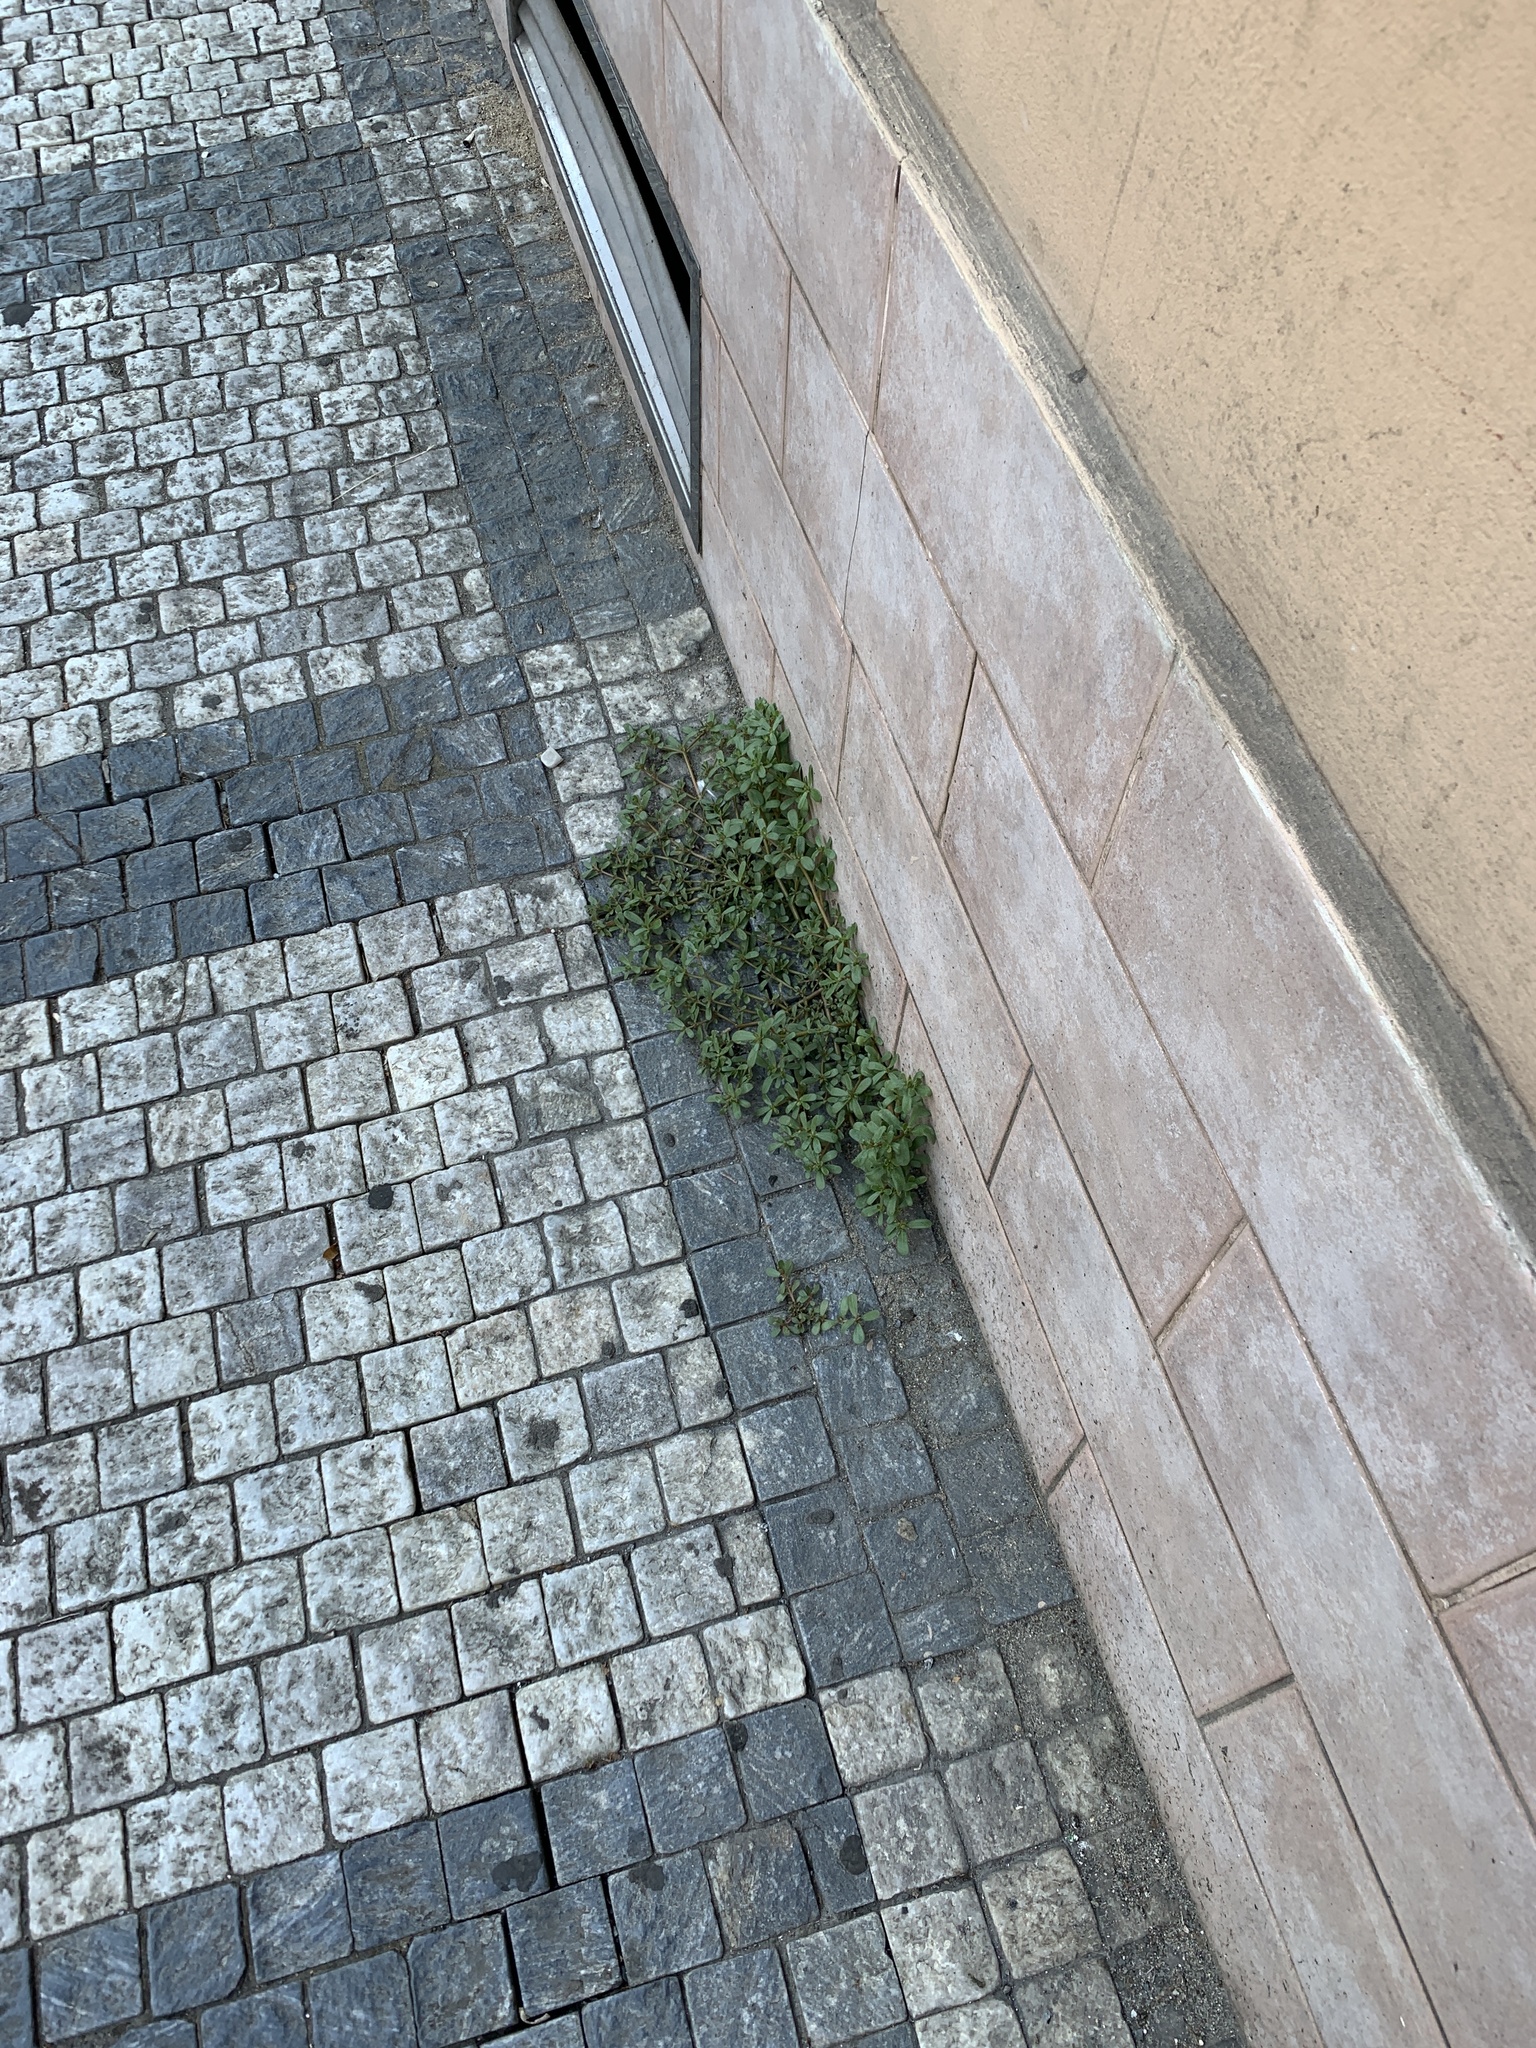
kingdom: Plantae
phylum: Tracheophyta
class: Magnoliopsida
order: Caryophyllales
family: Portulacaceae
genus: Portulaca
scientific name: Portulaca oleracea
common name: Common purslane
